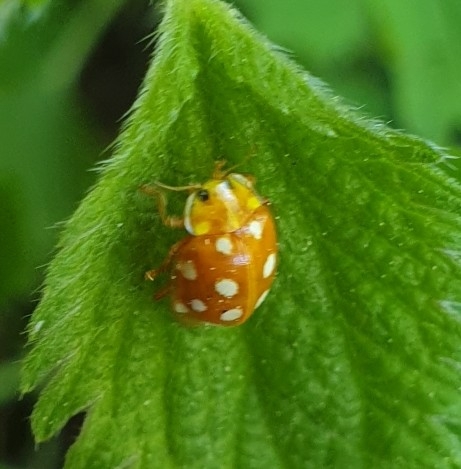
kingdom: Animalia
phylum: Arthropoda
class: Insecta
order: Coleoptera
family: Coccinellidae
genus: Halyzia
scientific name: Halyzia sedecimguttata
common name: Orange ladybird
